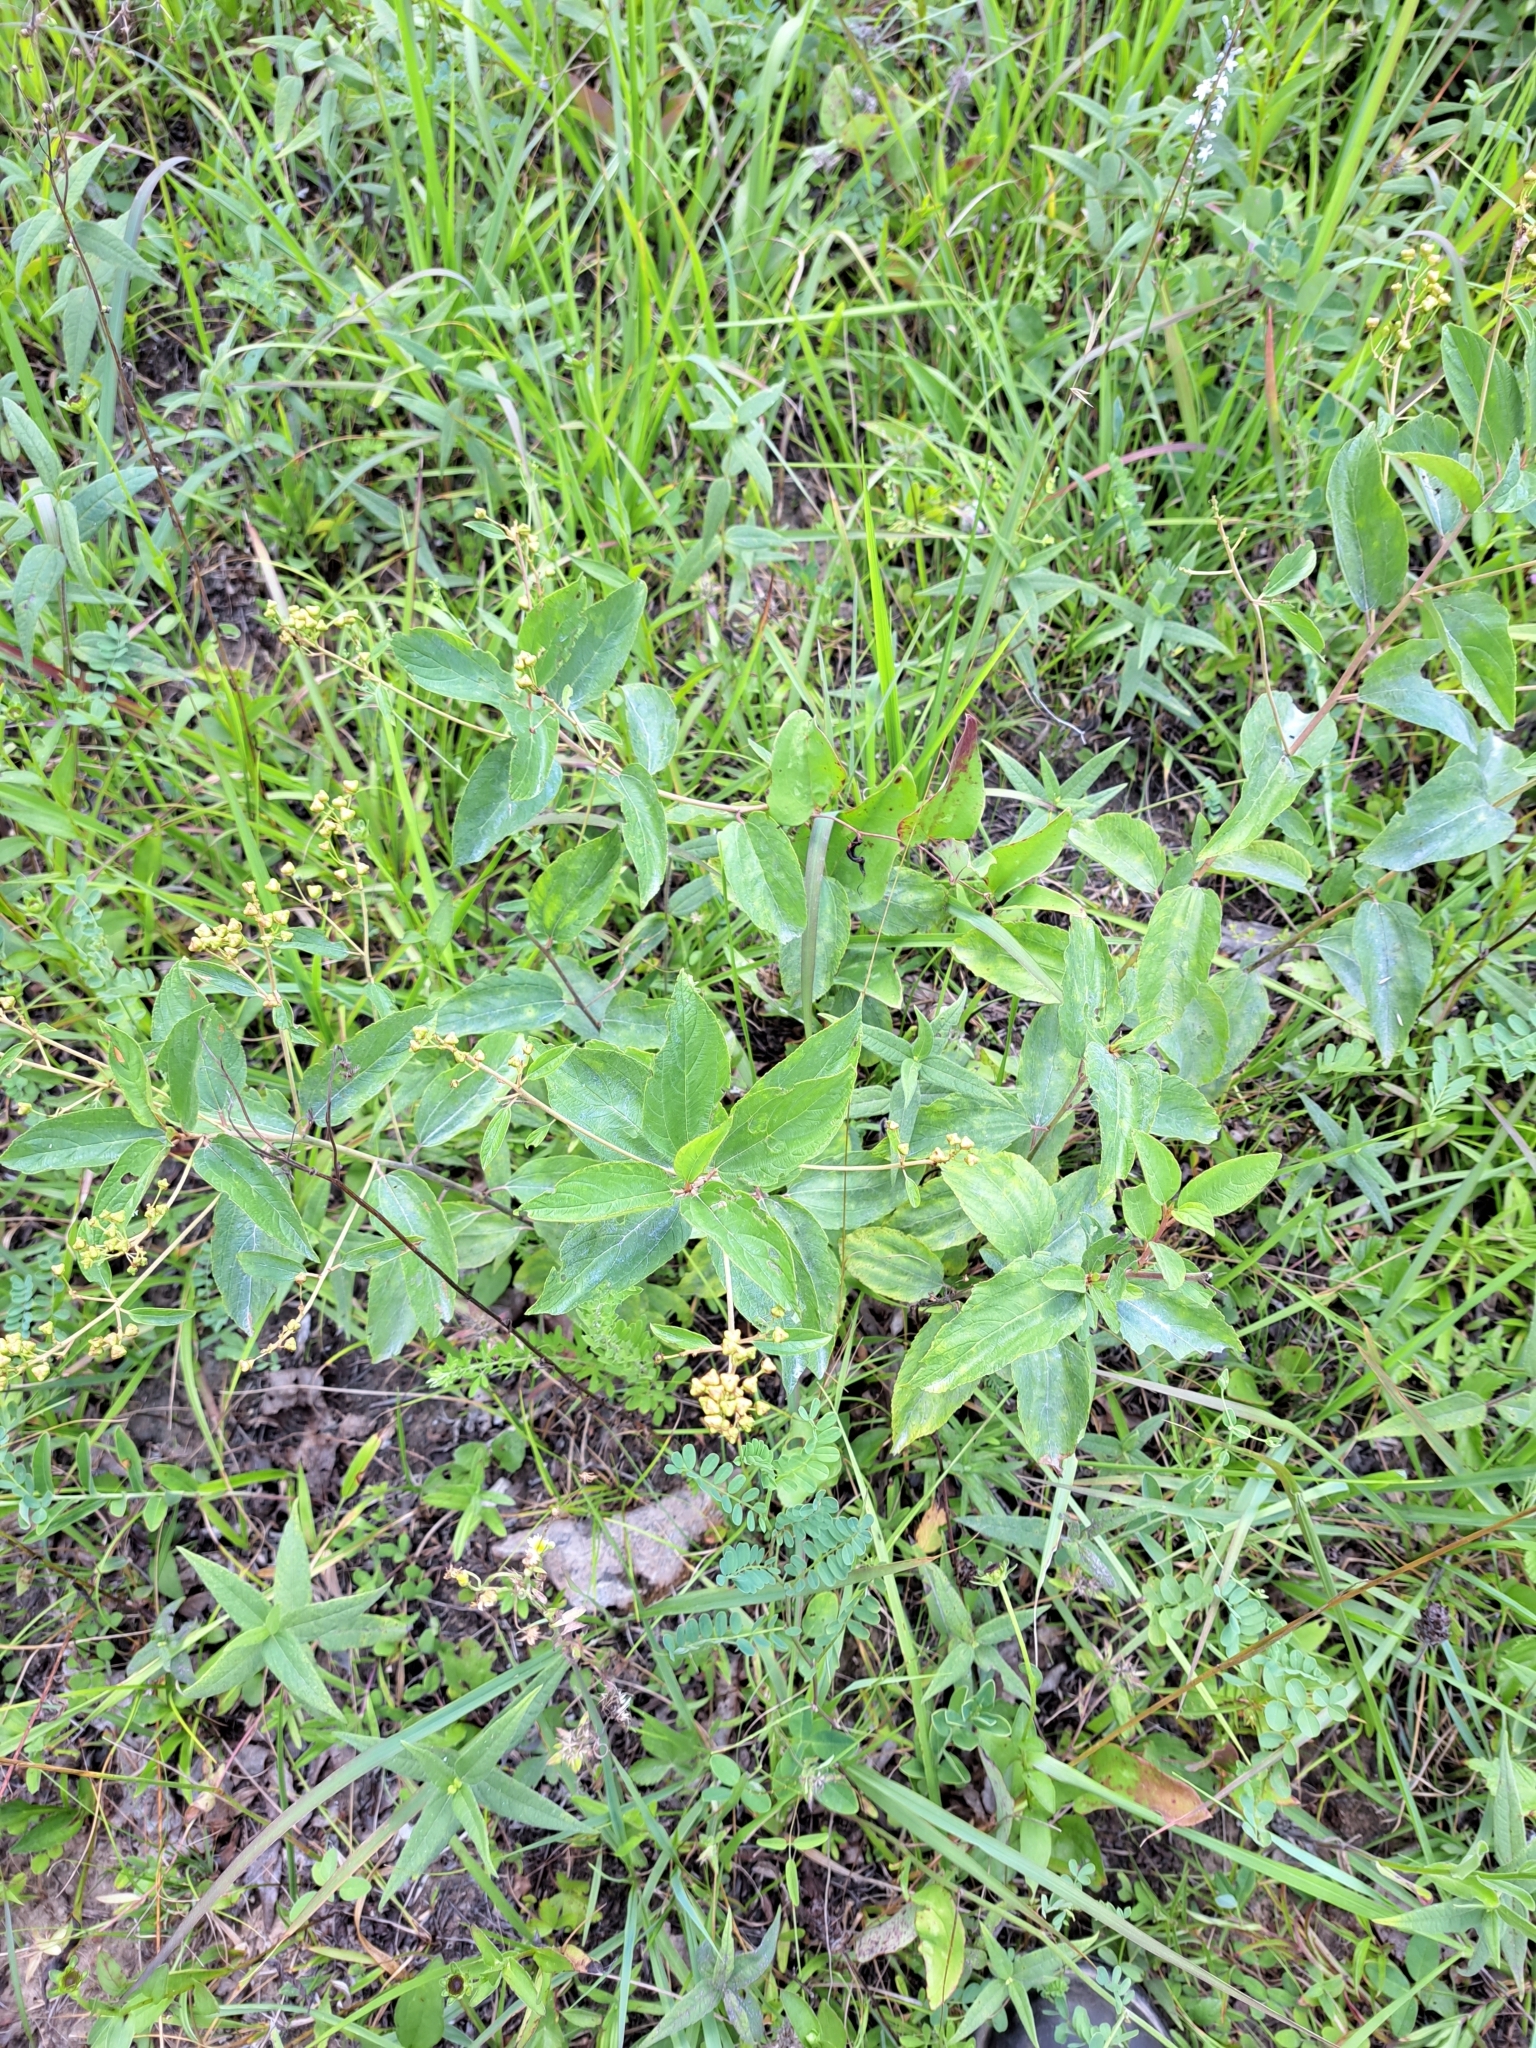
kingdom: Plantae
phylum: Tracheophyta
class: Magnoliopsida
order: Rosales
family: Rhamnaceae
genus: Ceanothus
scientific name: Ceanothus americanus
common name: Redroot
